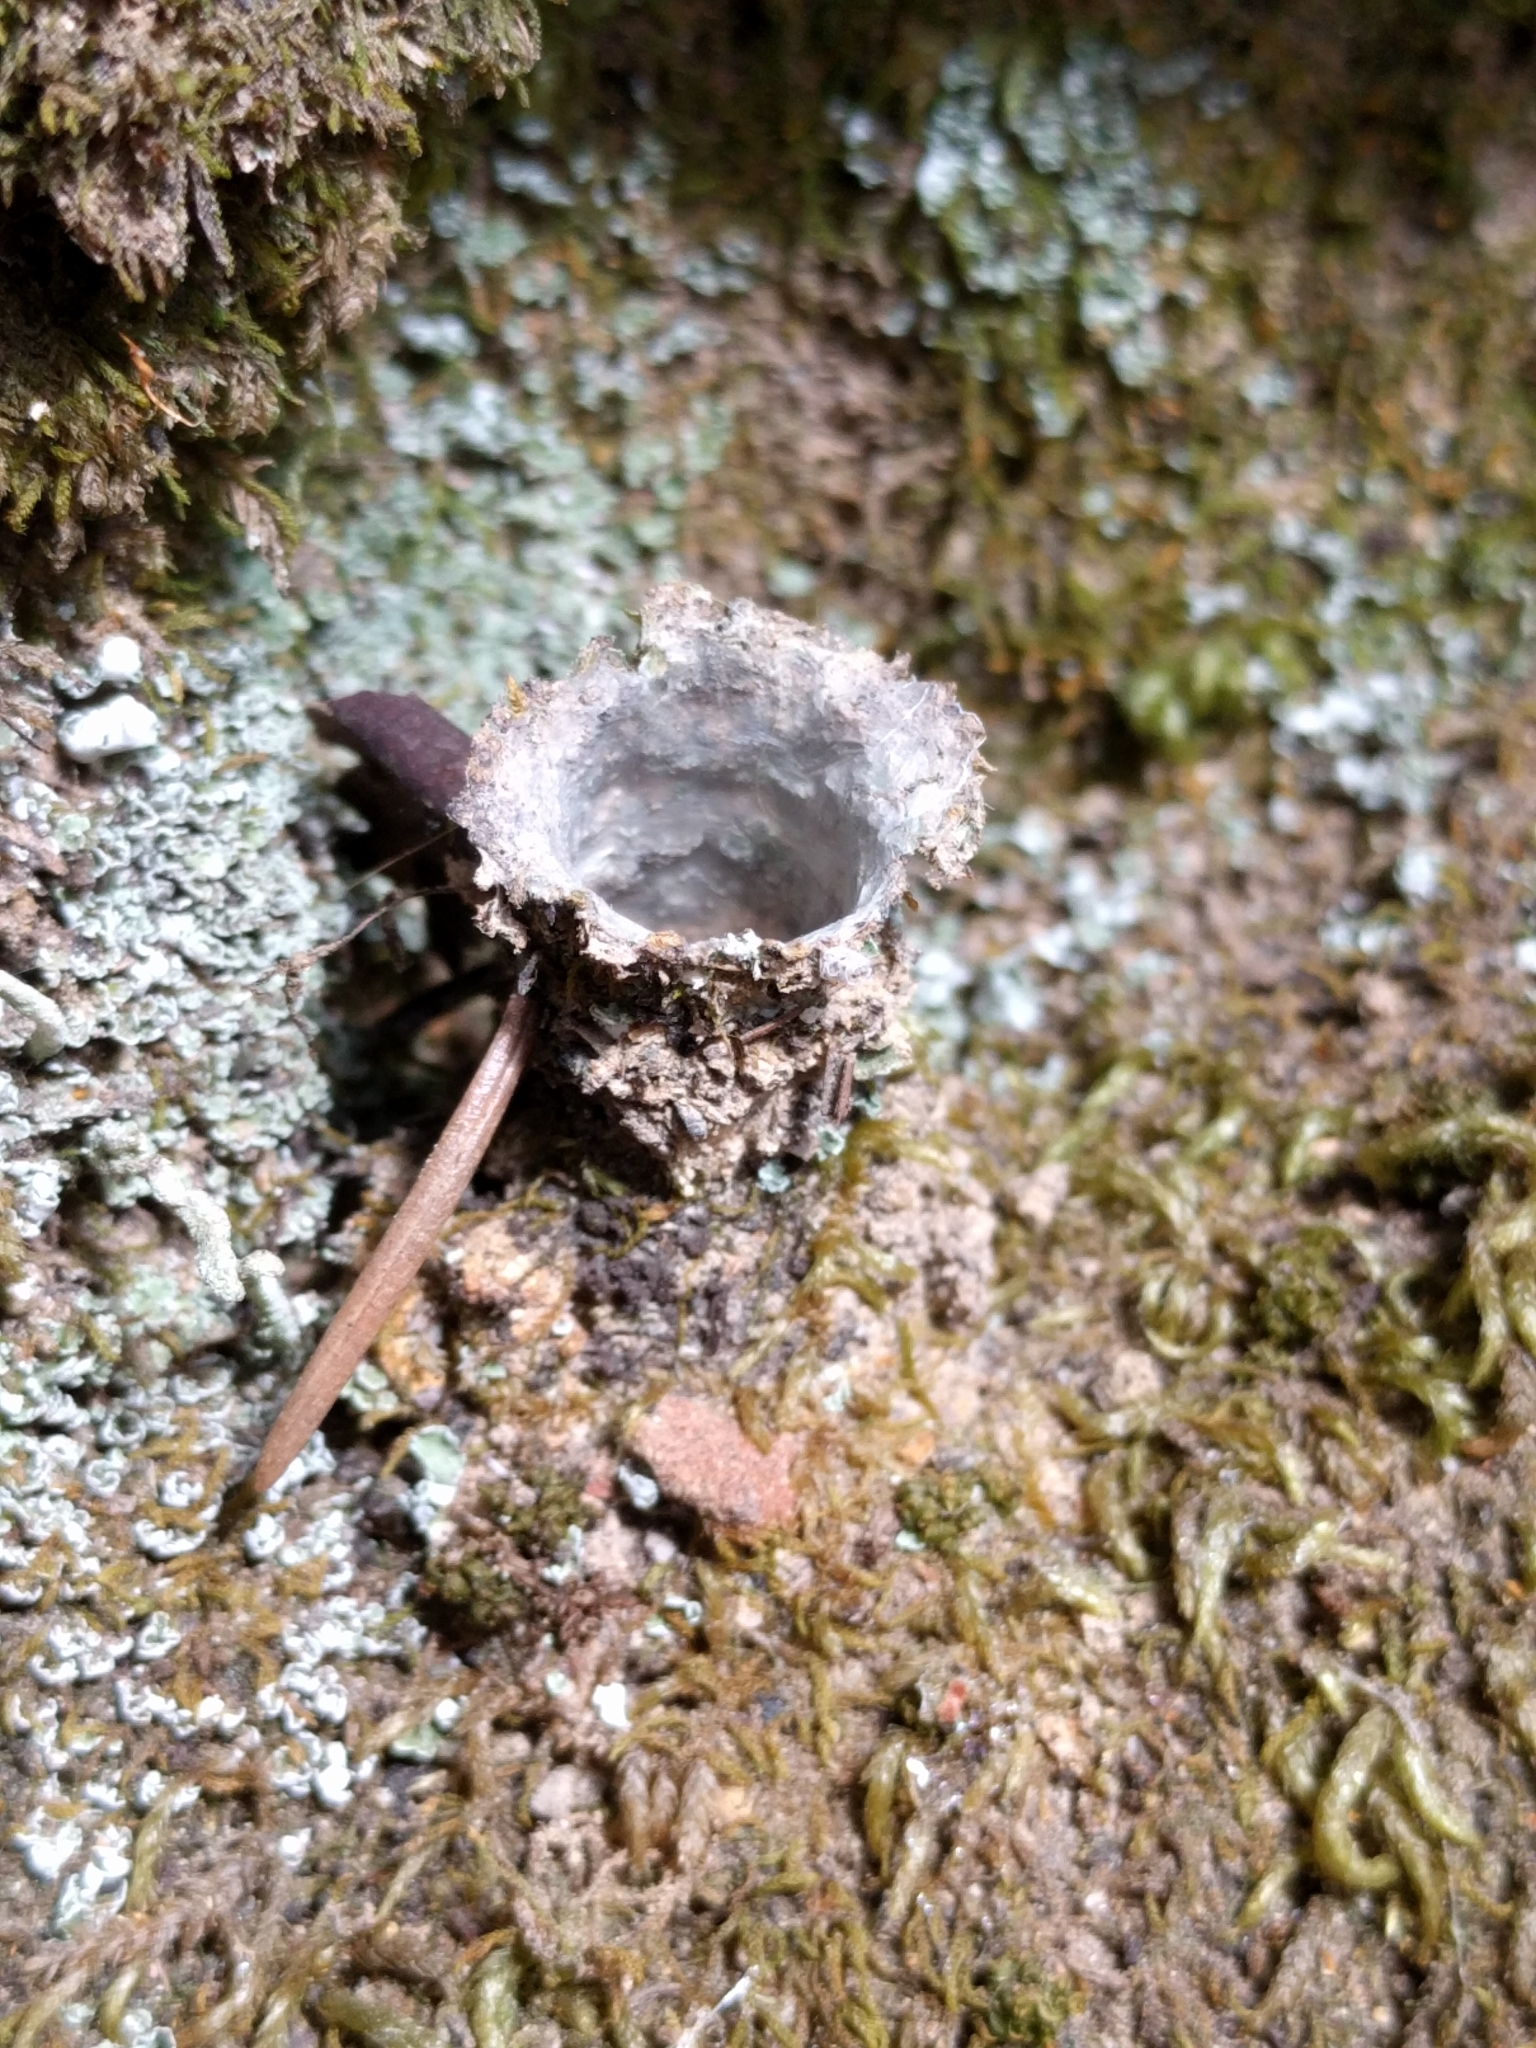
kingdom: Animalia
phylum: Arthropoda
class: Arachnida
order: Araneae
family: Antrodiaetidae
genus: Atypoides
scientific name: Atypoides riversi
